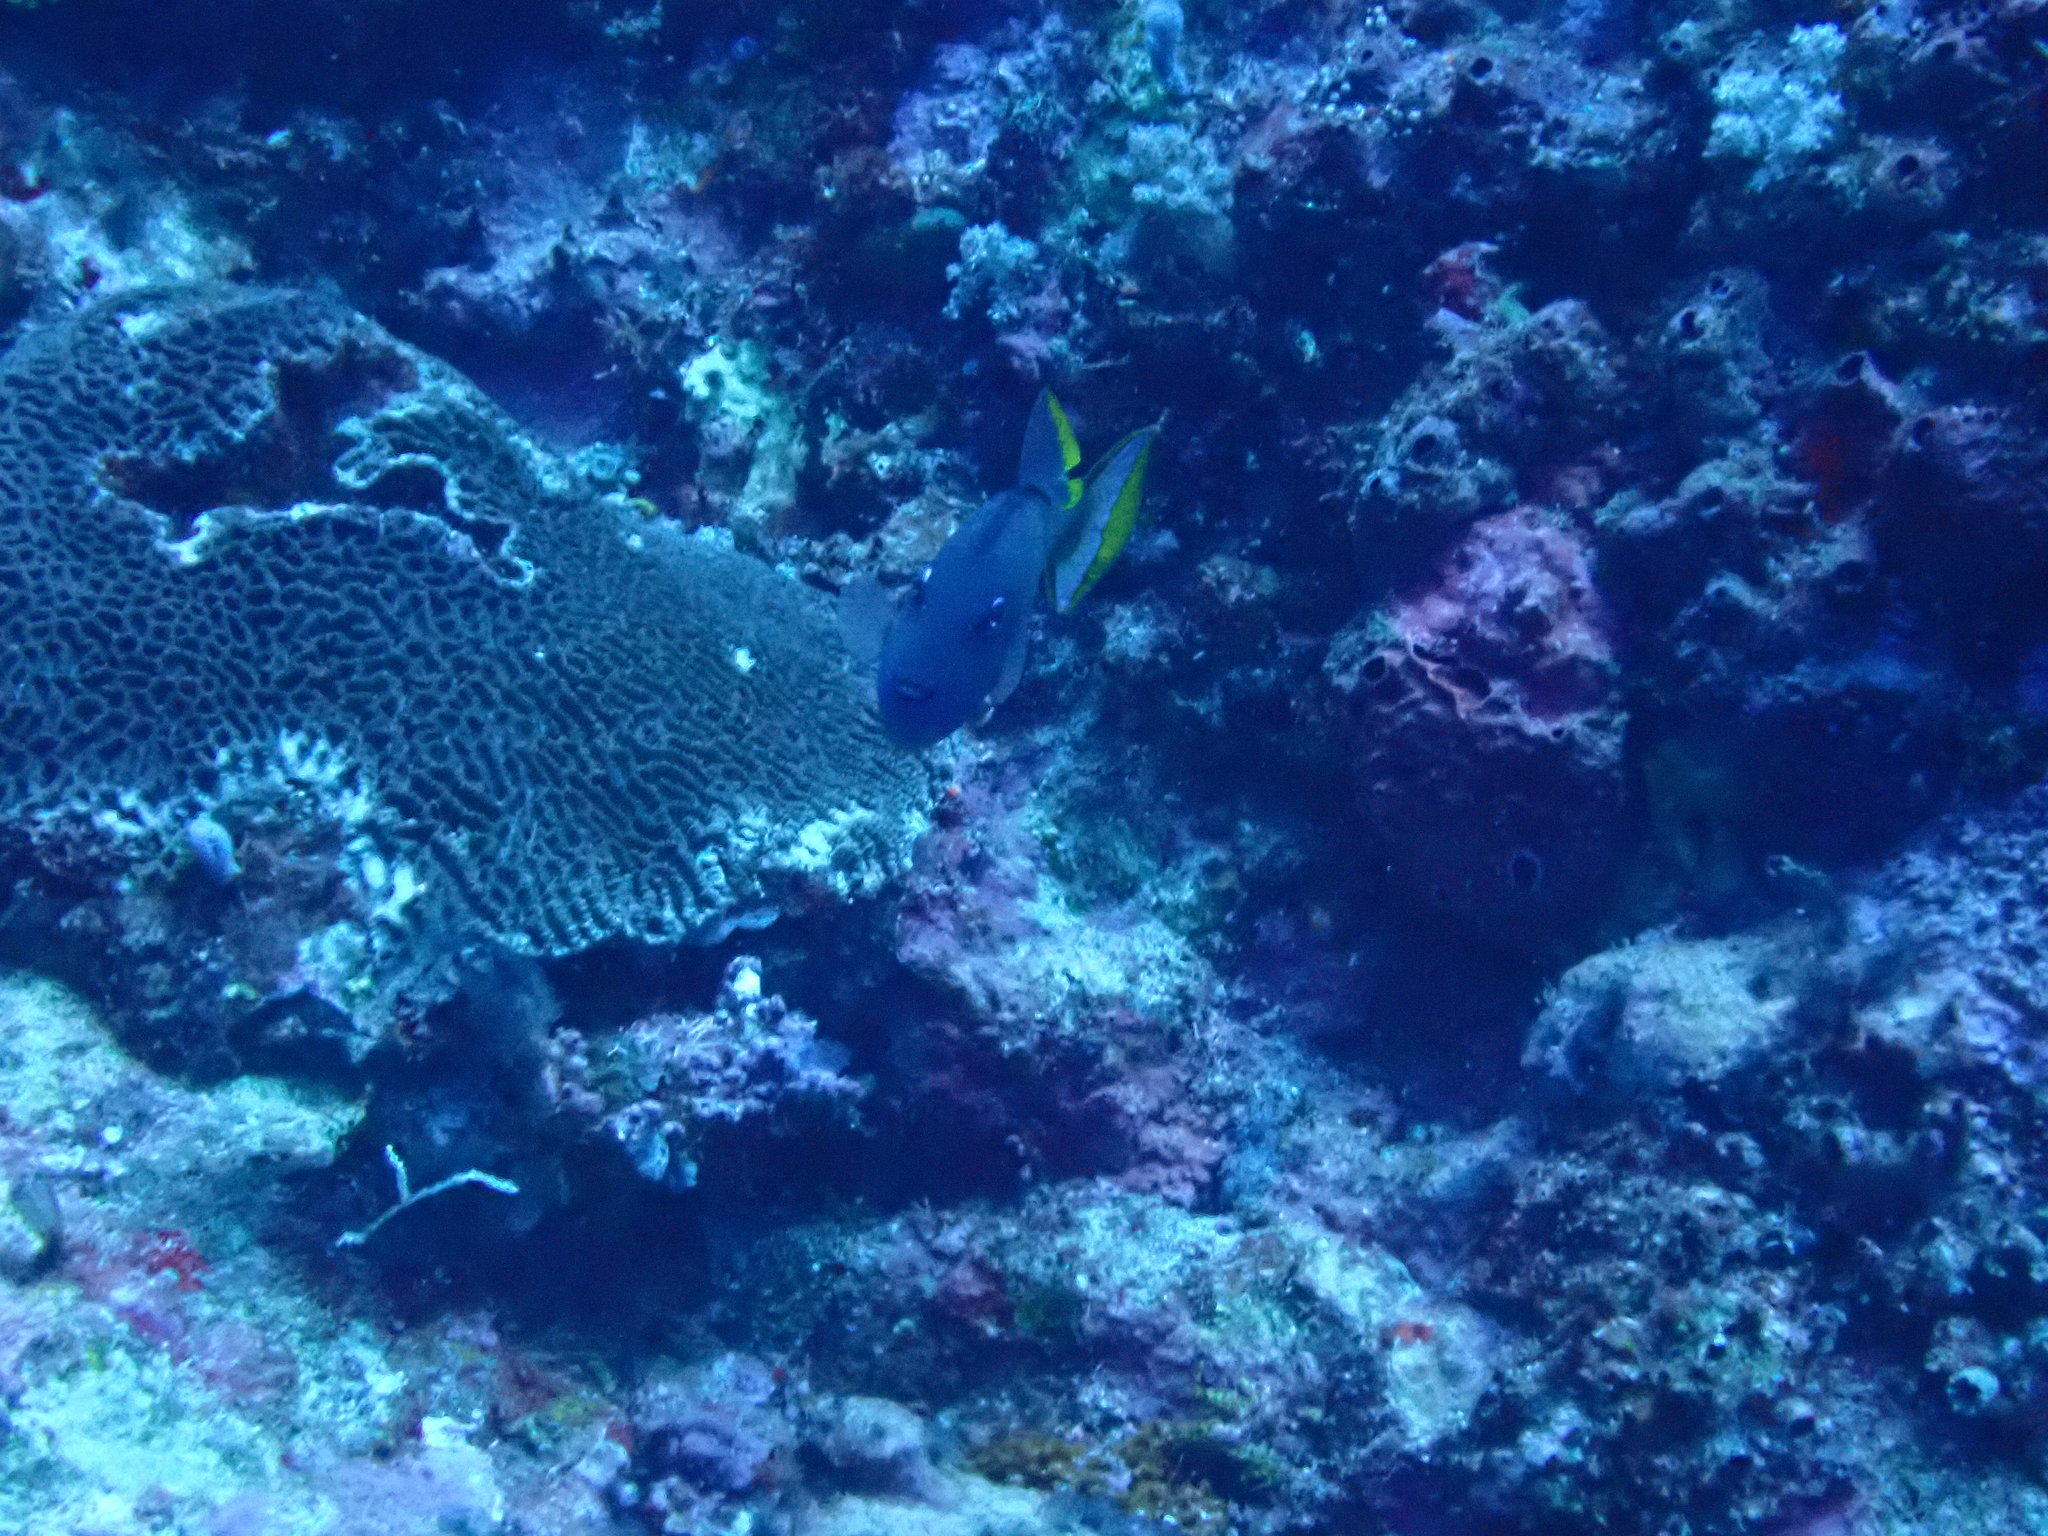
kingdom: Animalia
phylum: Chordata
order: Tetraodontiformes
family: Balistidae
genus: Xanthichthys
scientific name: Xanthichthys auromarginatus
